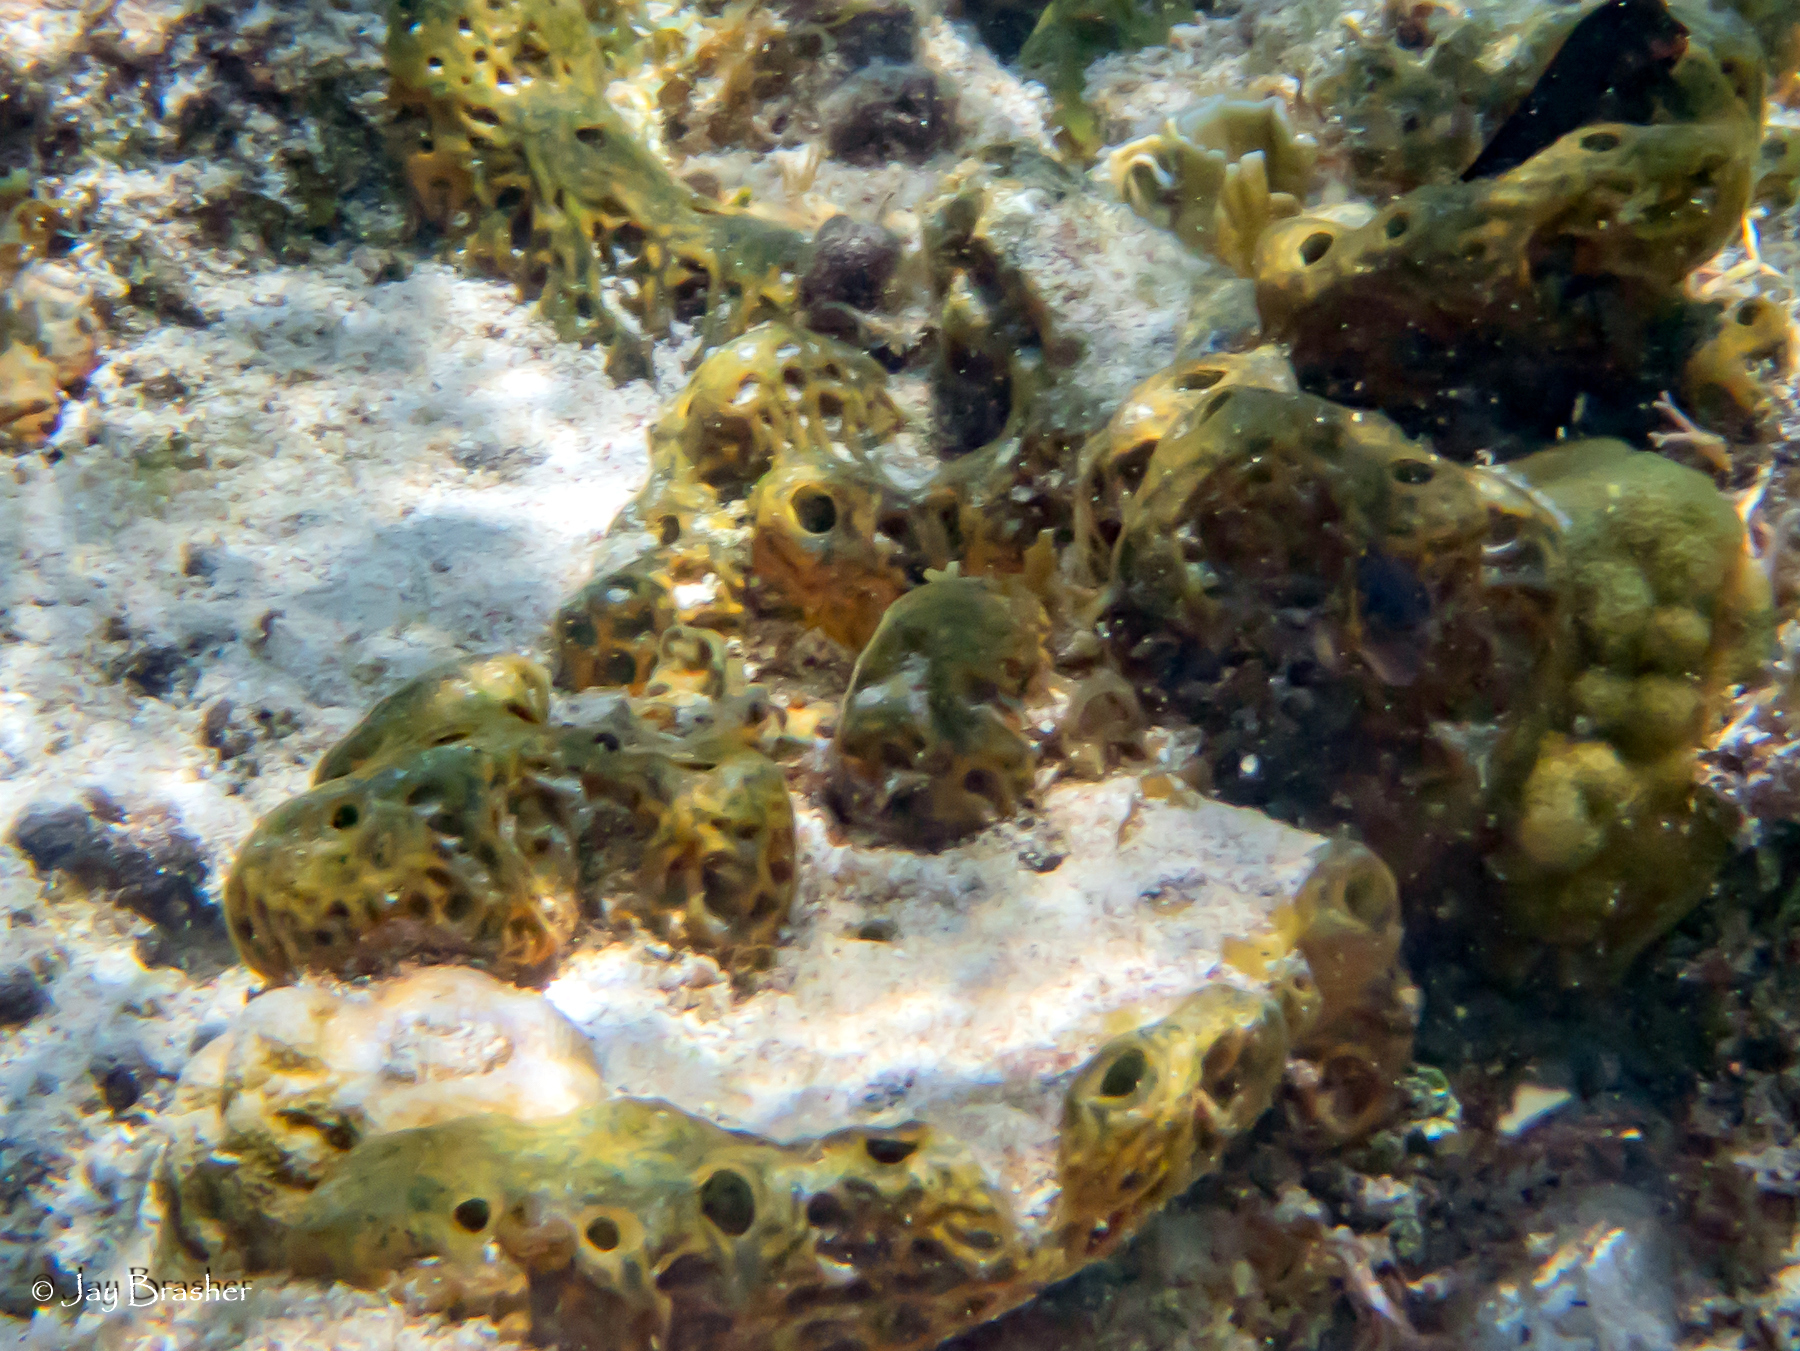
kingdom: Animalia
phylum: Porifera
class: Demospongiae
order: Verongiida
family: Aplysinidae
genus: Verongula
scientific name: Verongula rigida
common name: Pitted sponge
